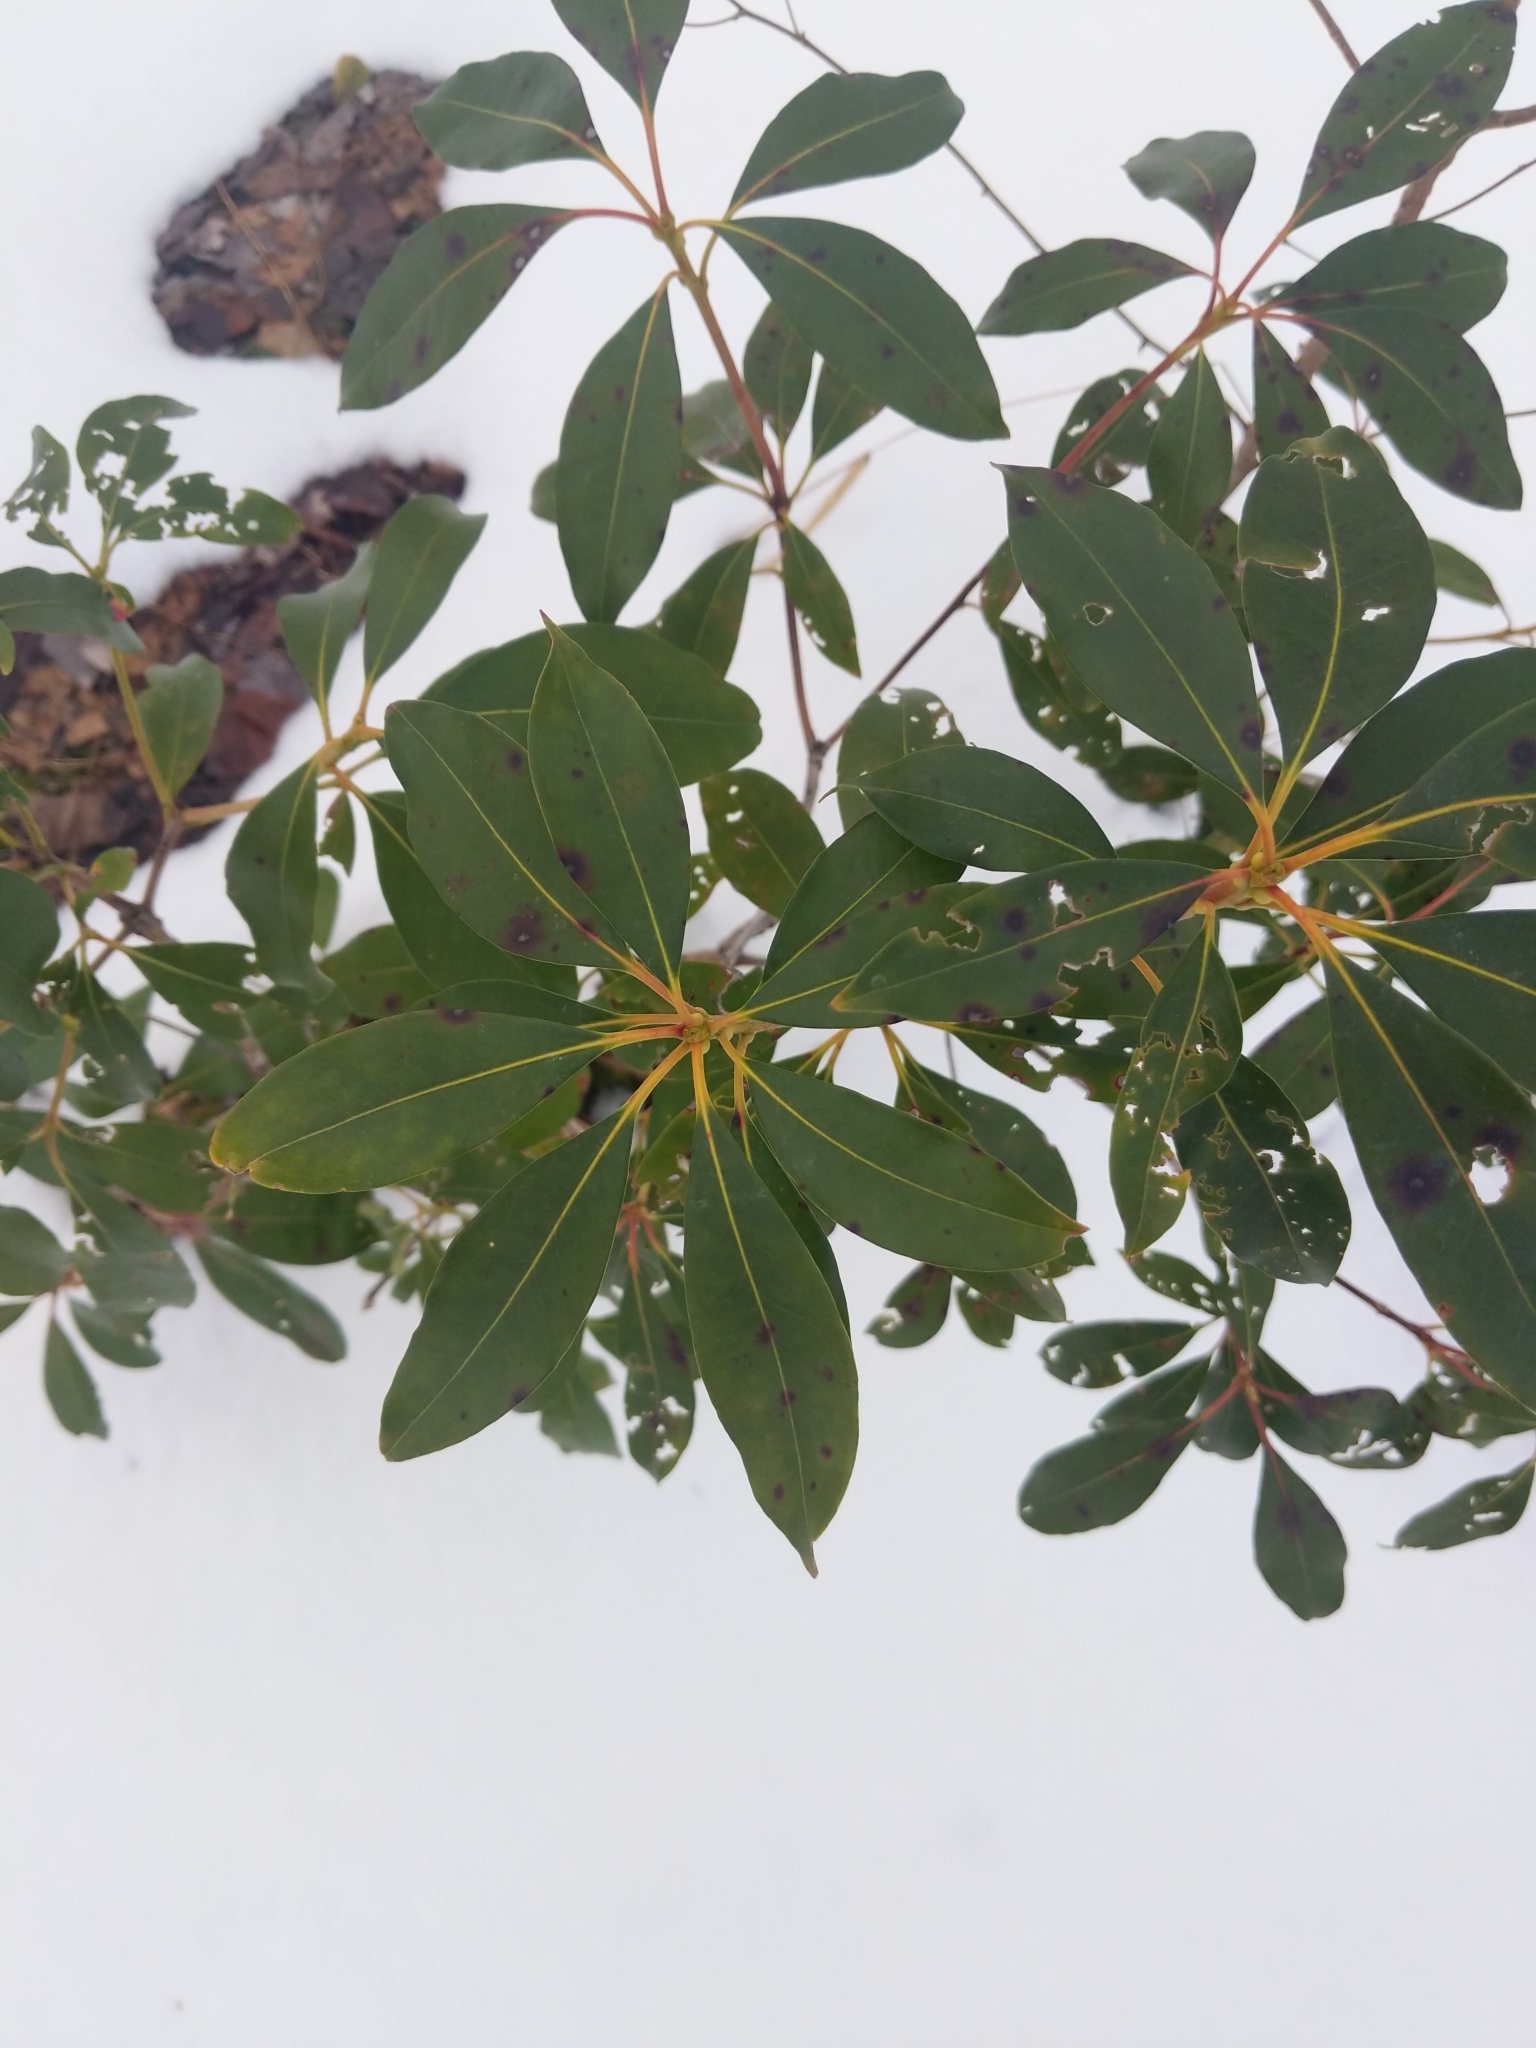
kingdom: Plantae
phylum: Tracheophyta
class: Magnoliopsida
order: Ericales
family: Ericaceae
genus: Kalmia
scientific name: Kalmia latifolia
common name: Mountain-laurel
